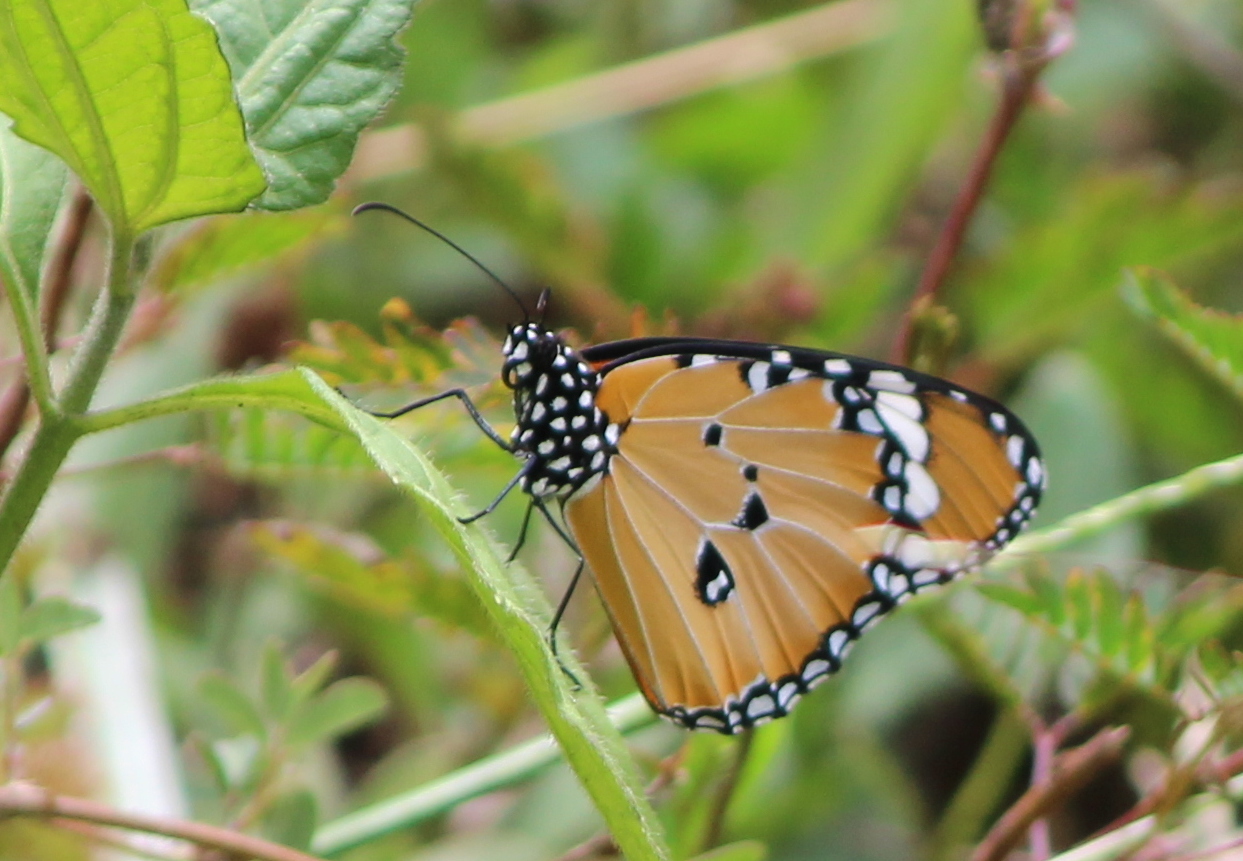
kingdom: Animalia
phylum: Arthropoda
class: Insecta
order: Lepidoptera
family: Nymphalidae
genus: Danaus
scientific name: Danaus chrysippus
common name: Plain tiger
